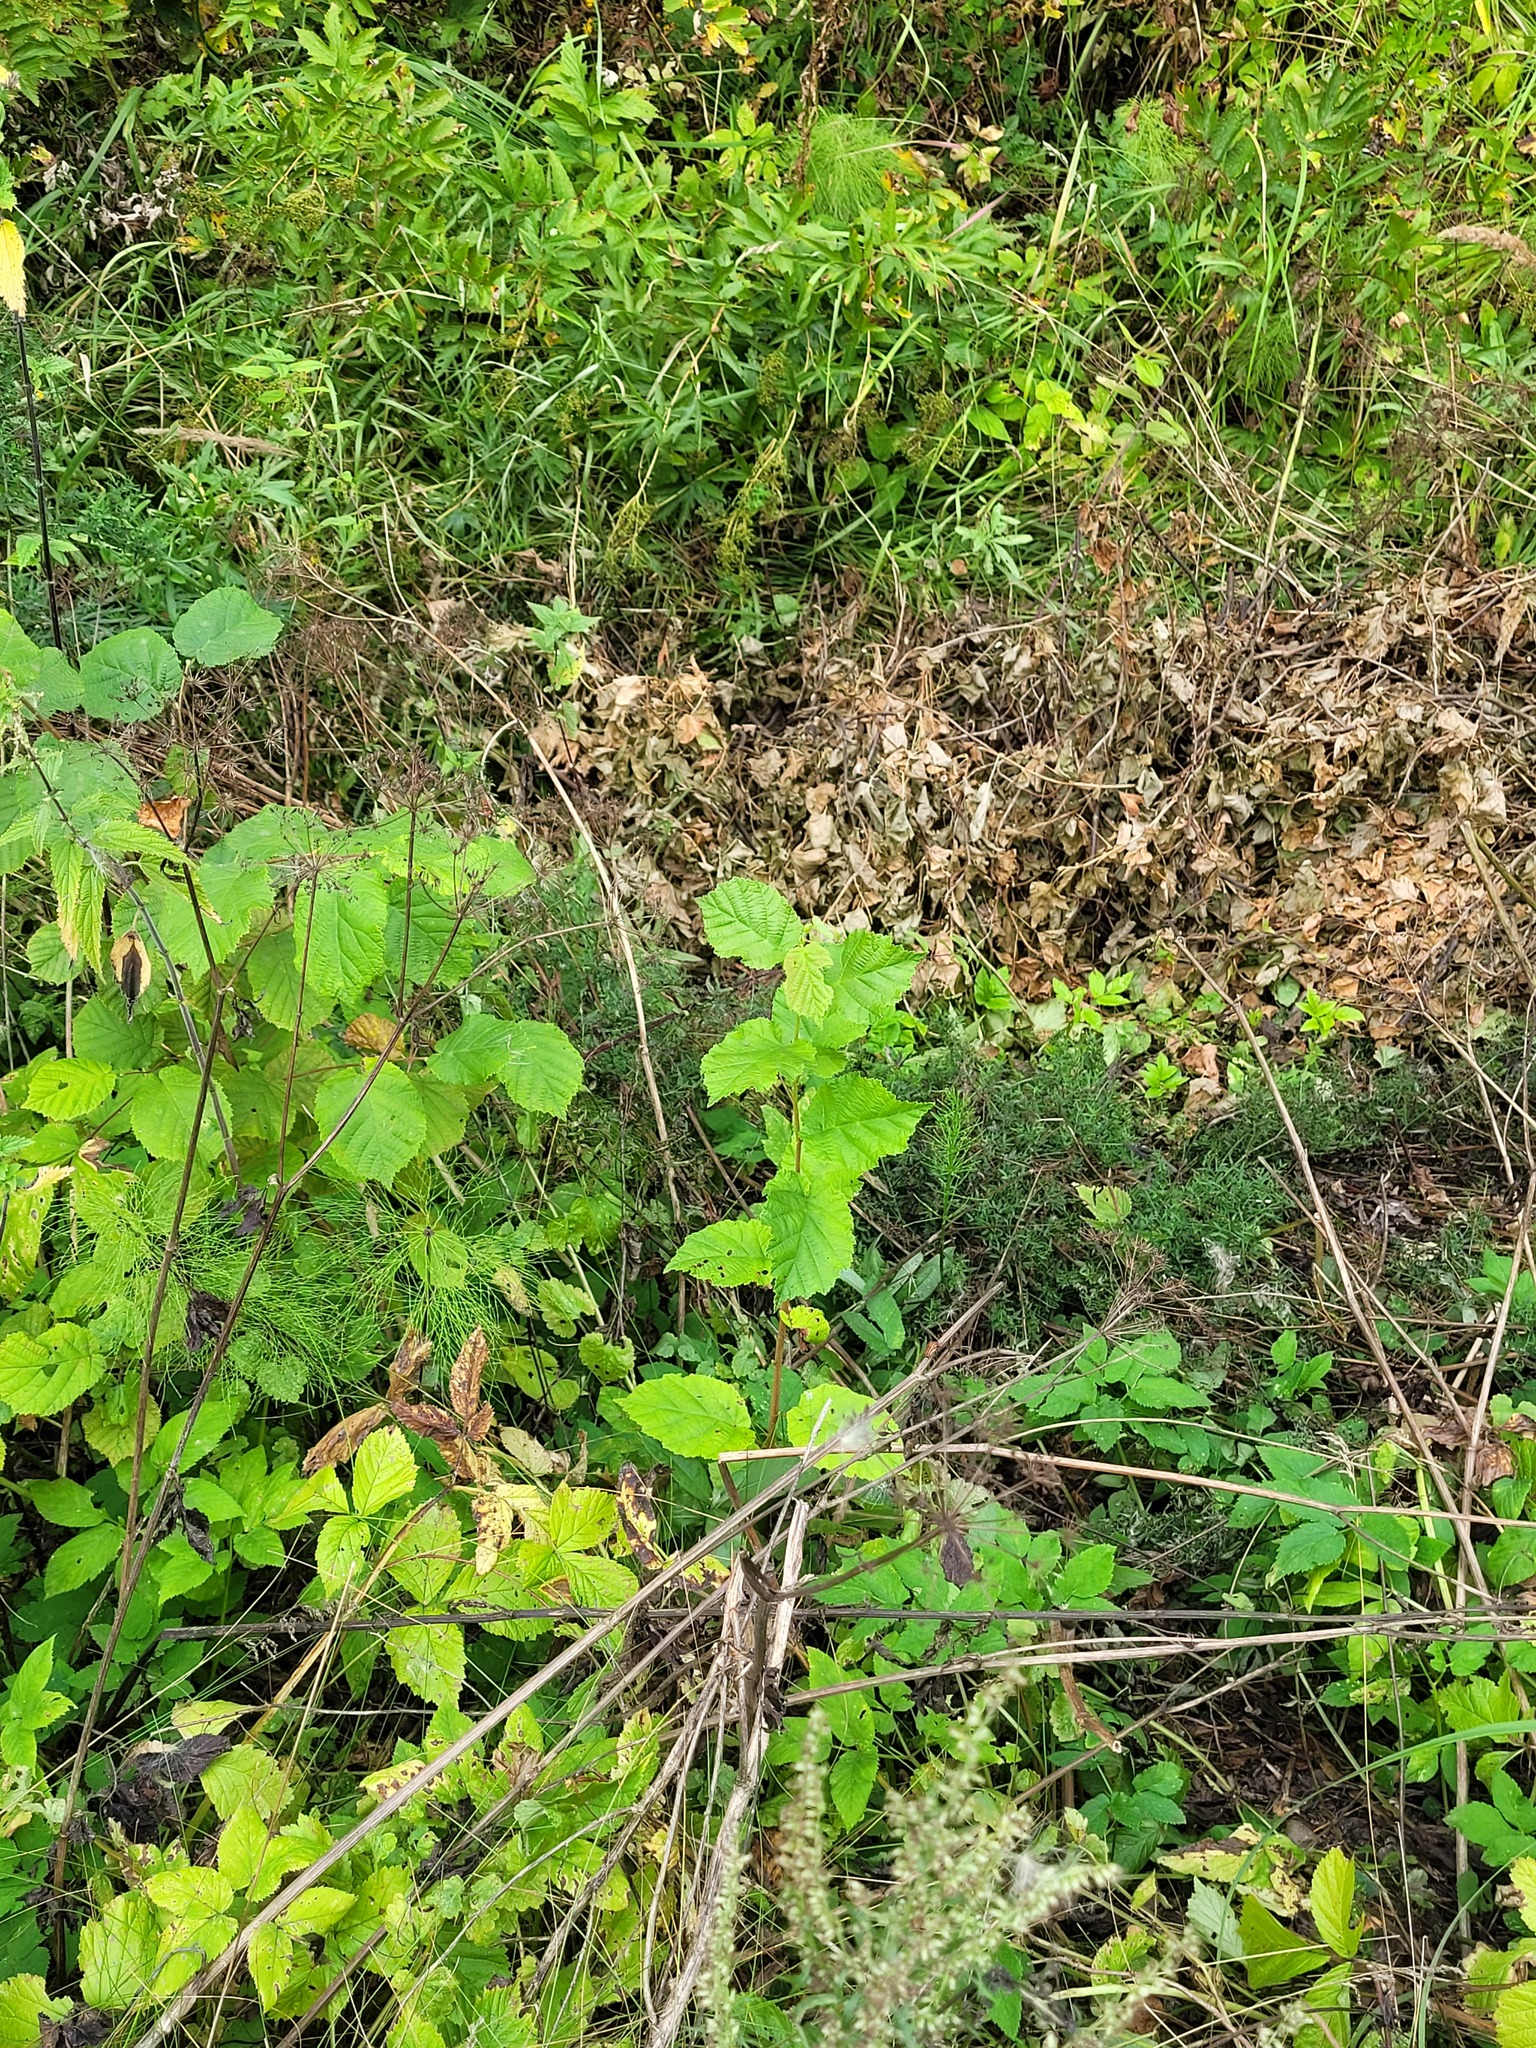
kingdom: Plantae
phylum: Tracheophyta
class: Magnoliopsida
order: Fagales
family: Betulaceae
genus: Corylus
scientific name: Corylus avellana
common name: European hazel
